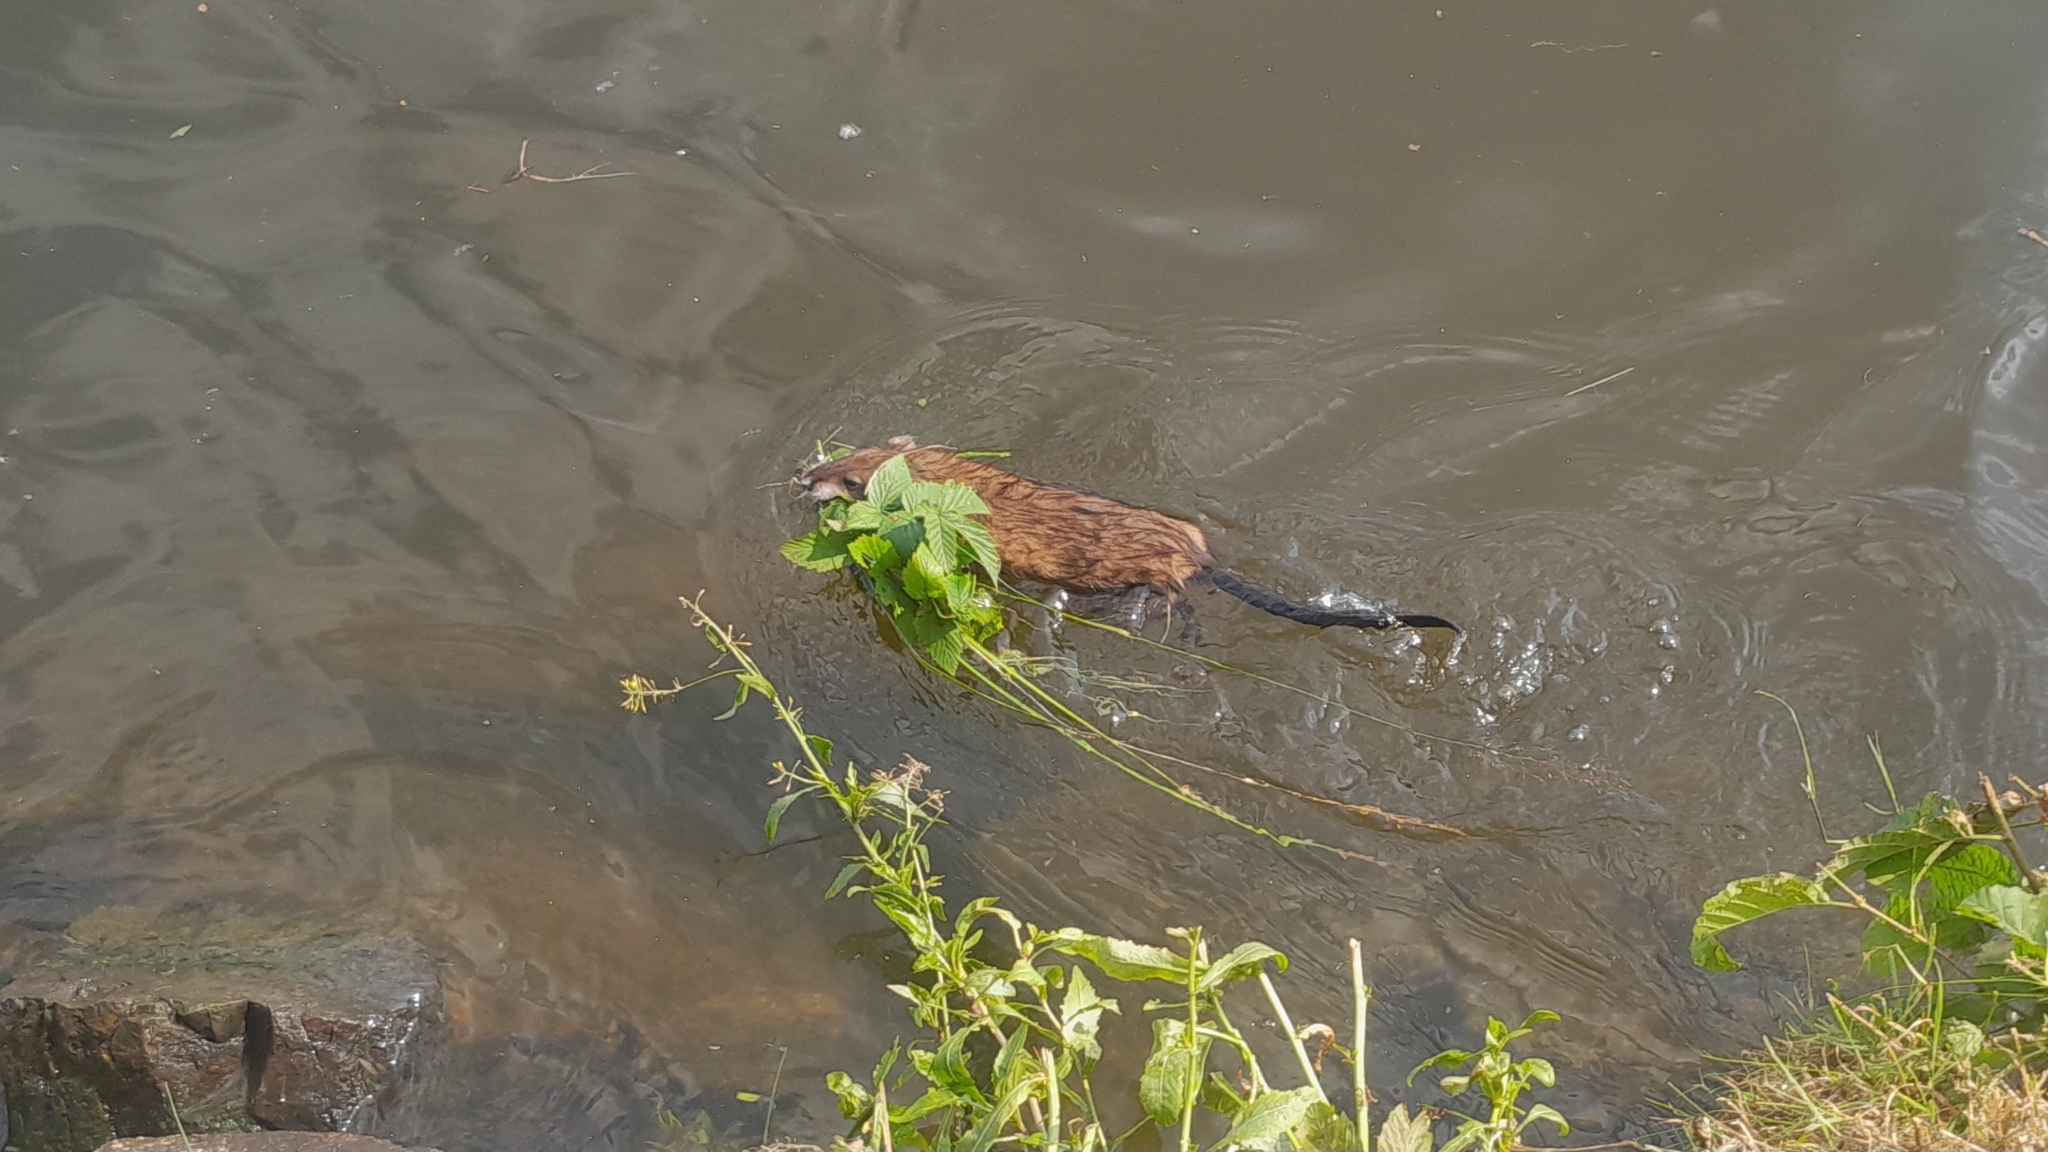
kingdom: Animalia
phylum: Chordata
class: Mammalia
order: Rodentia
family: Cricetidae
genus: Ondatra
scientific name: Ondatra zibethicus
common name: Muskrat
